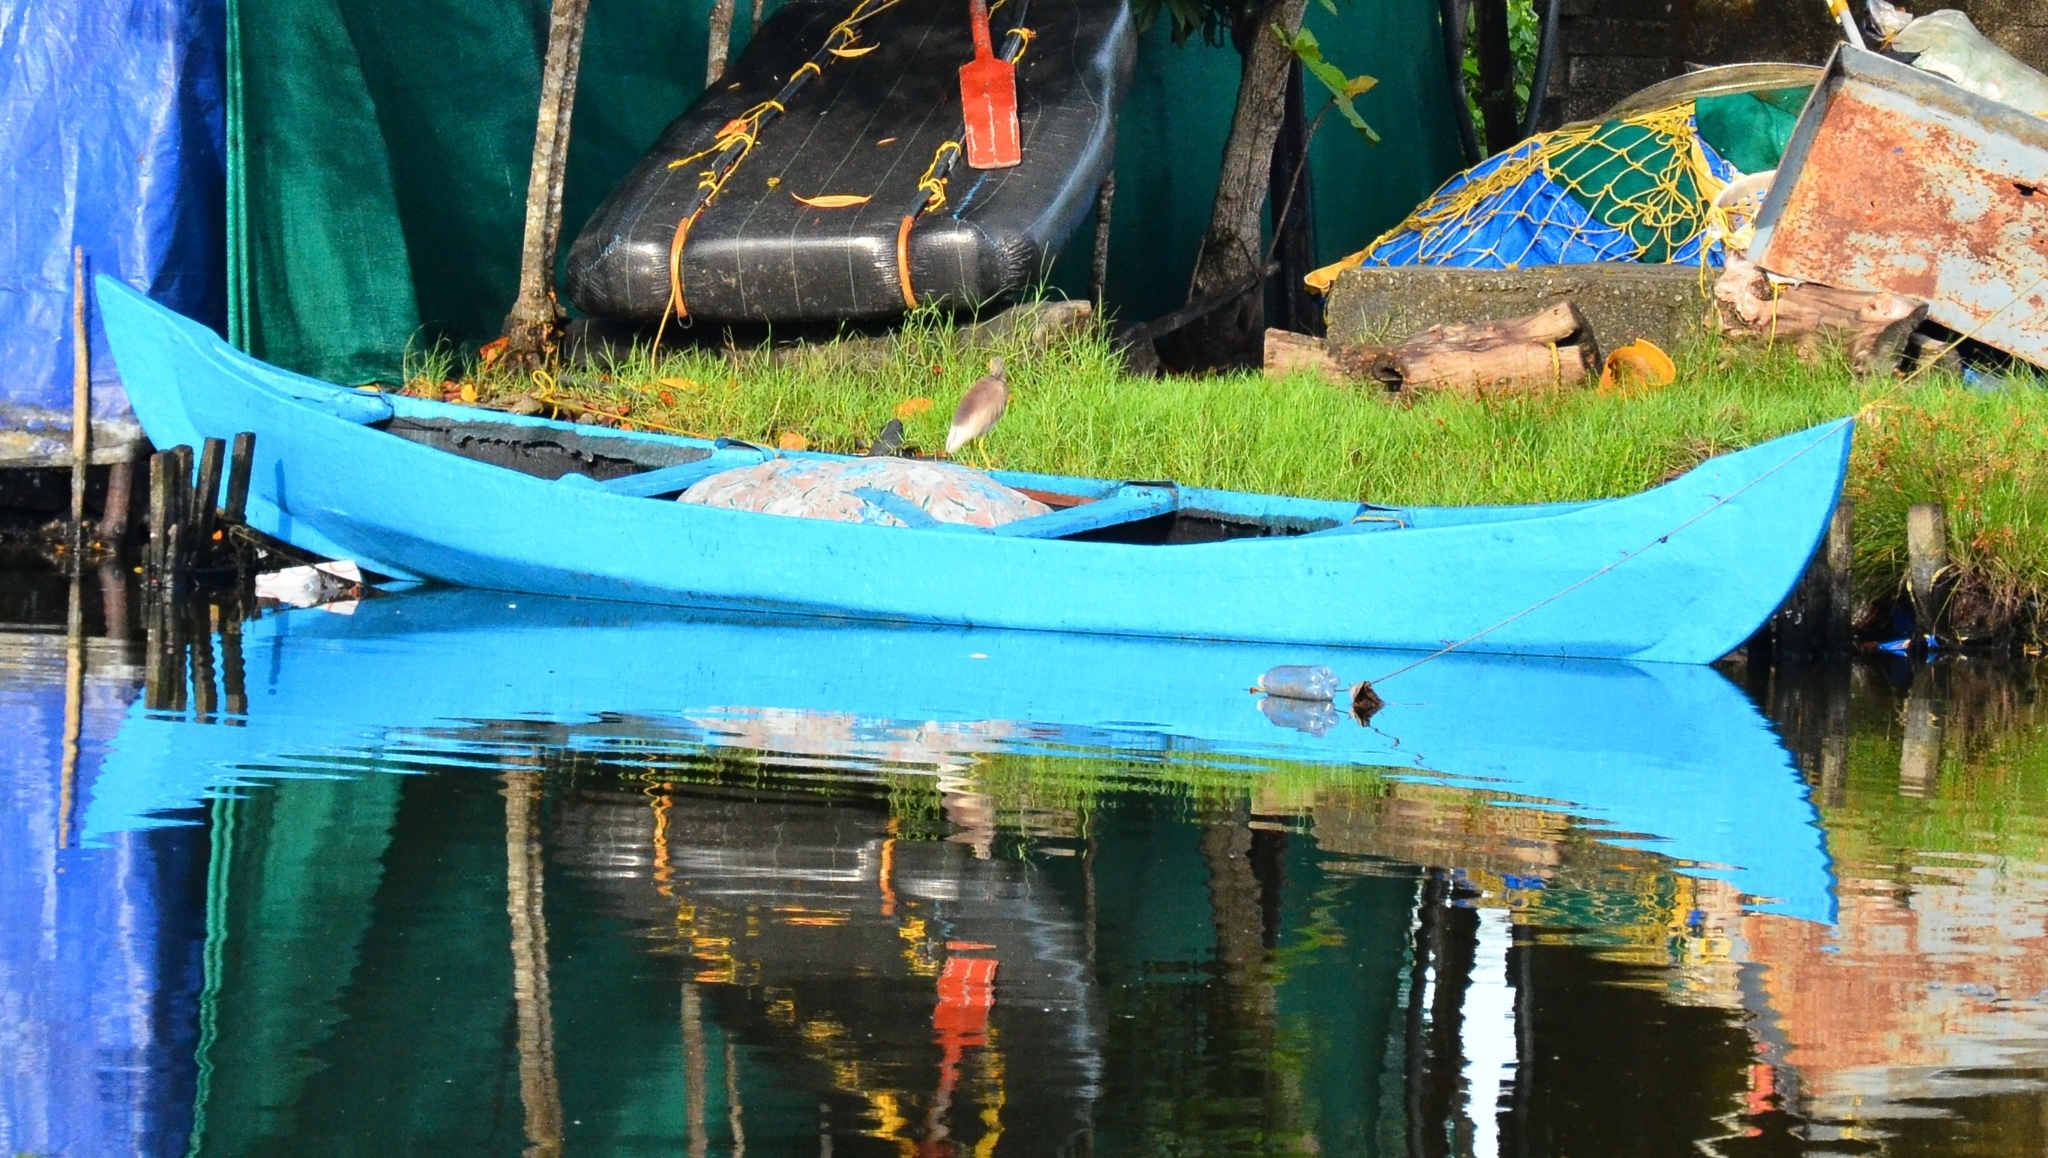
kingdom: Animalia
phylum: Chordata
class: Aves
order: Pelecaniformes
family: Ardeidae
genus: Ardeola
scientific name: Ardeola grayii
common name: Indian pond heron
